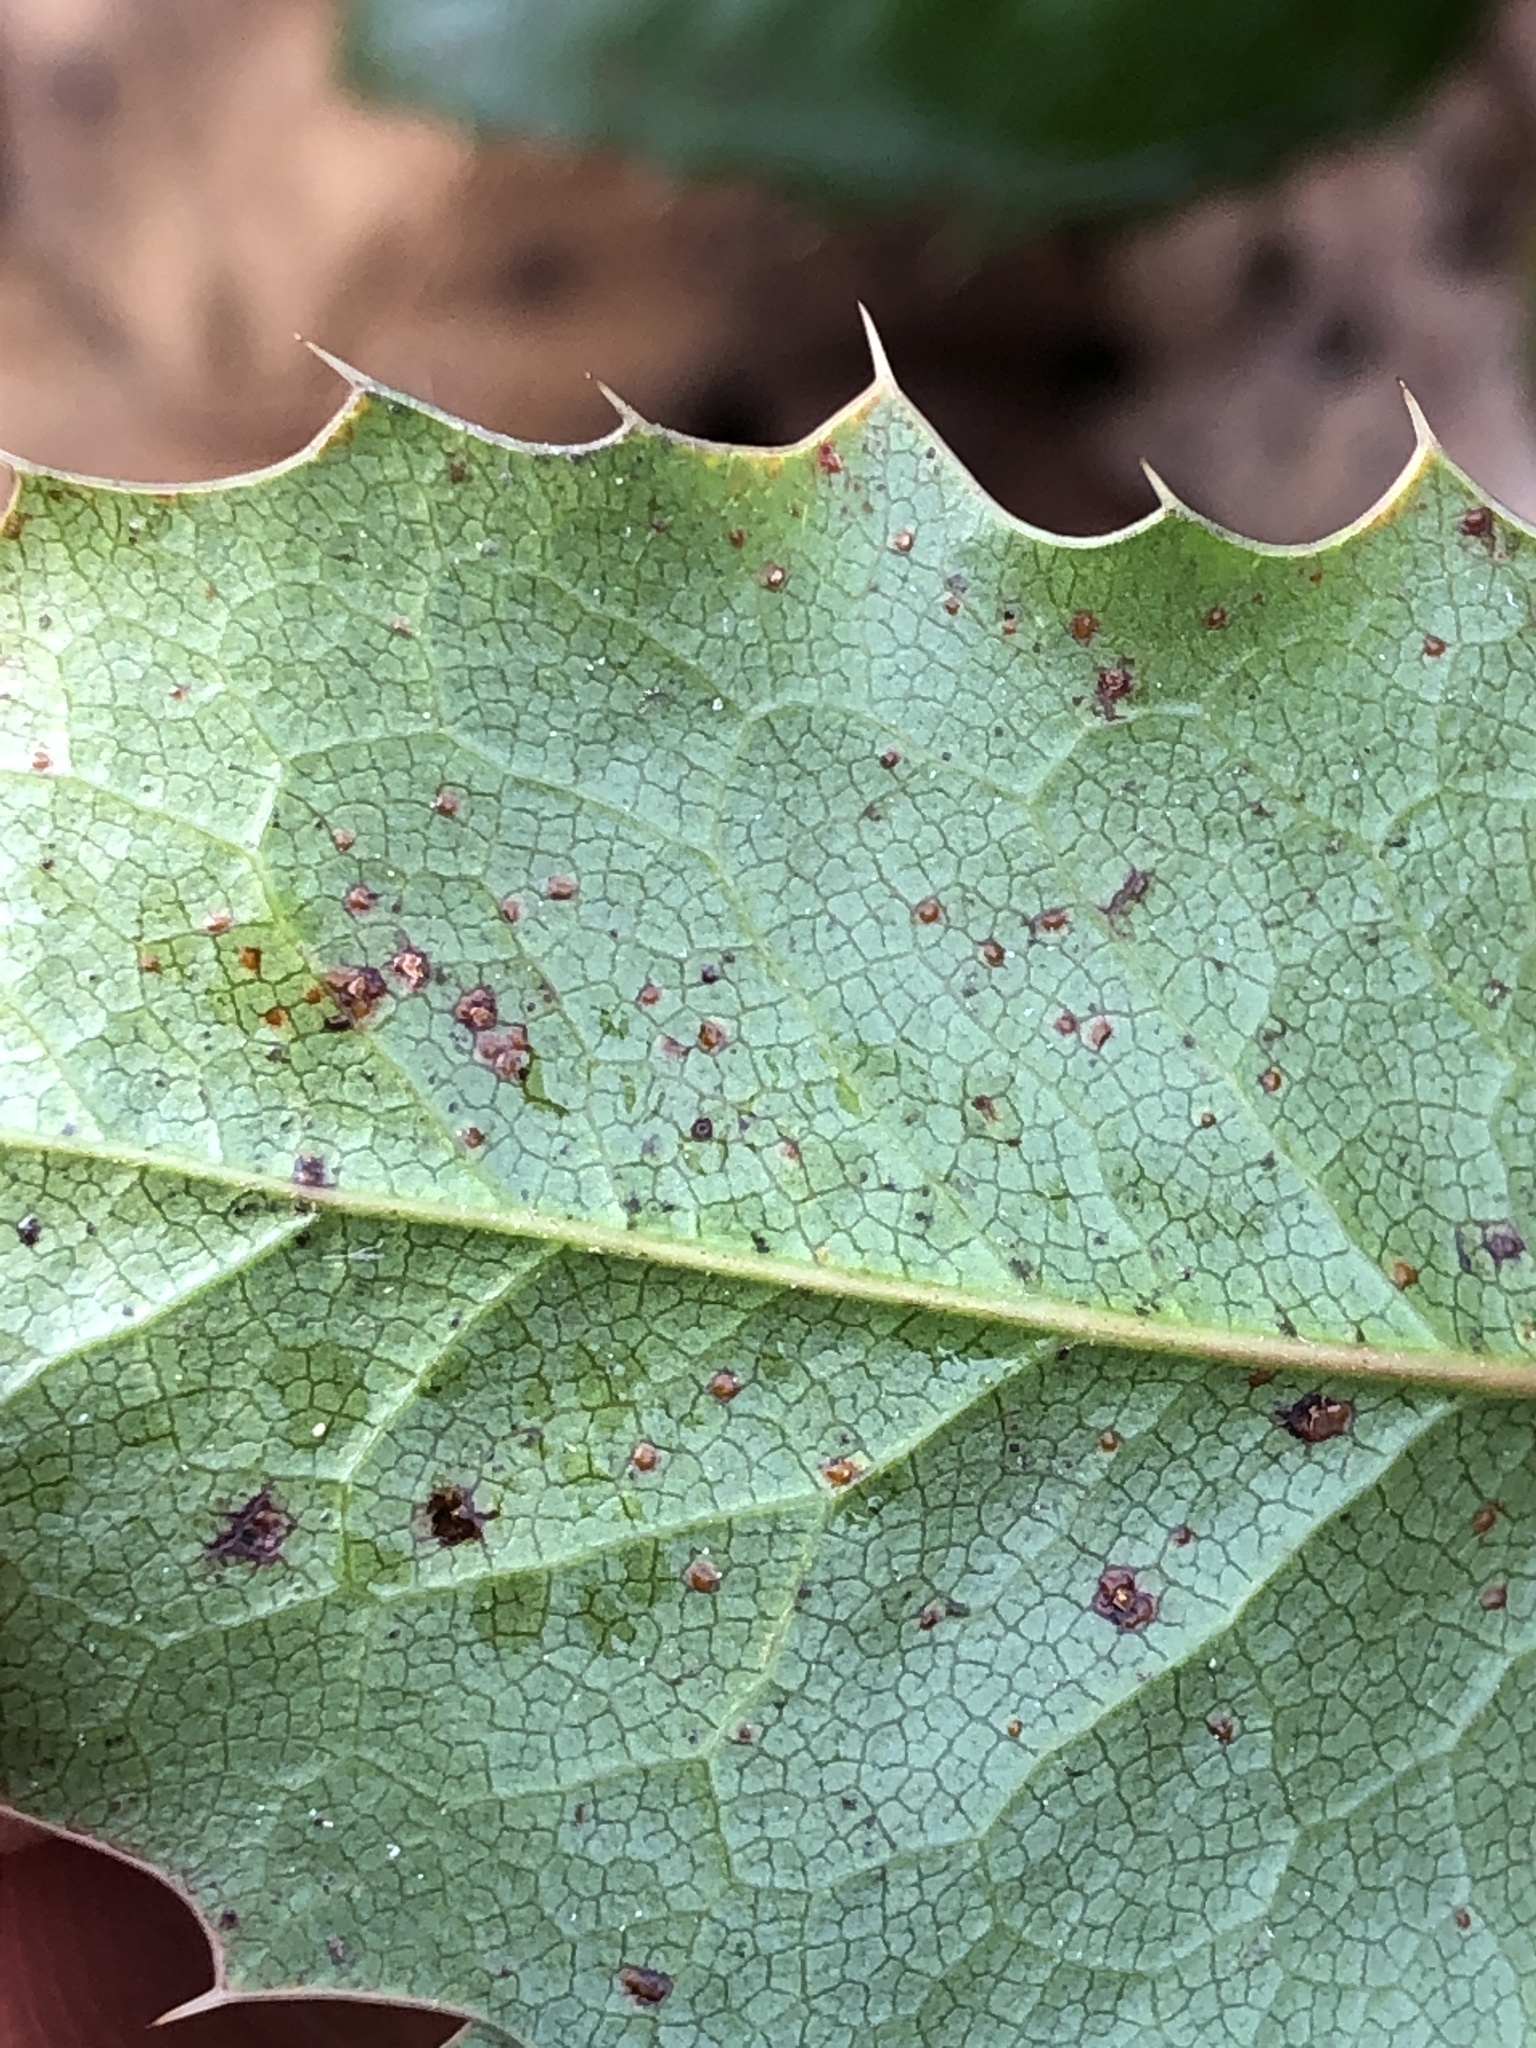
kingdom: Fungi
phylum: Basidiomycota
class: Pucciniomycetes
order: Pucciniales
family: Pucciniaceae
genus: Cumminsiella
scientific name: Cumminsiella mirabilissima
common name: Mahonia rust
